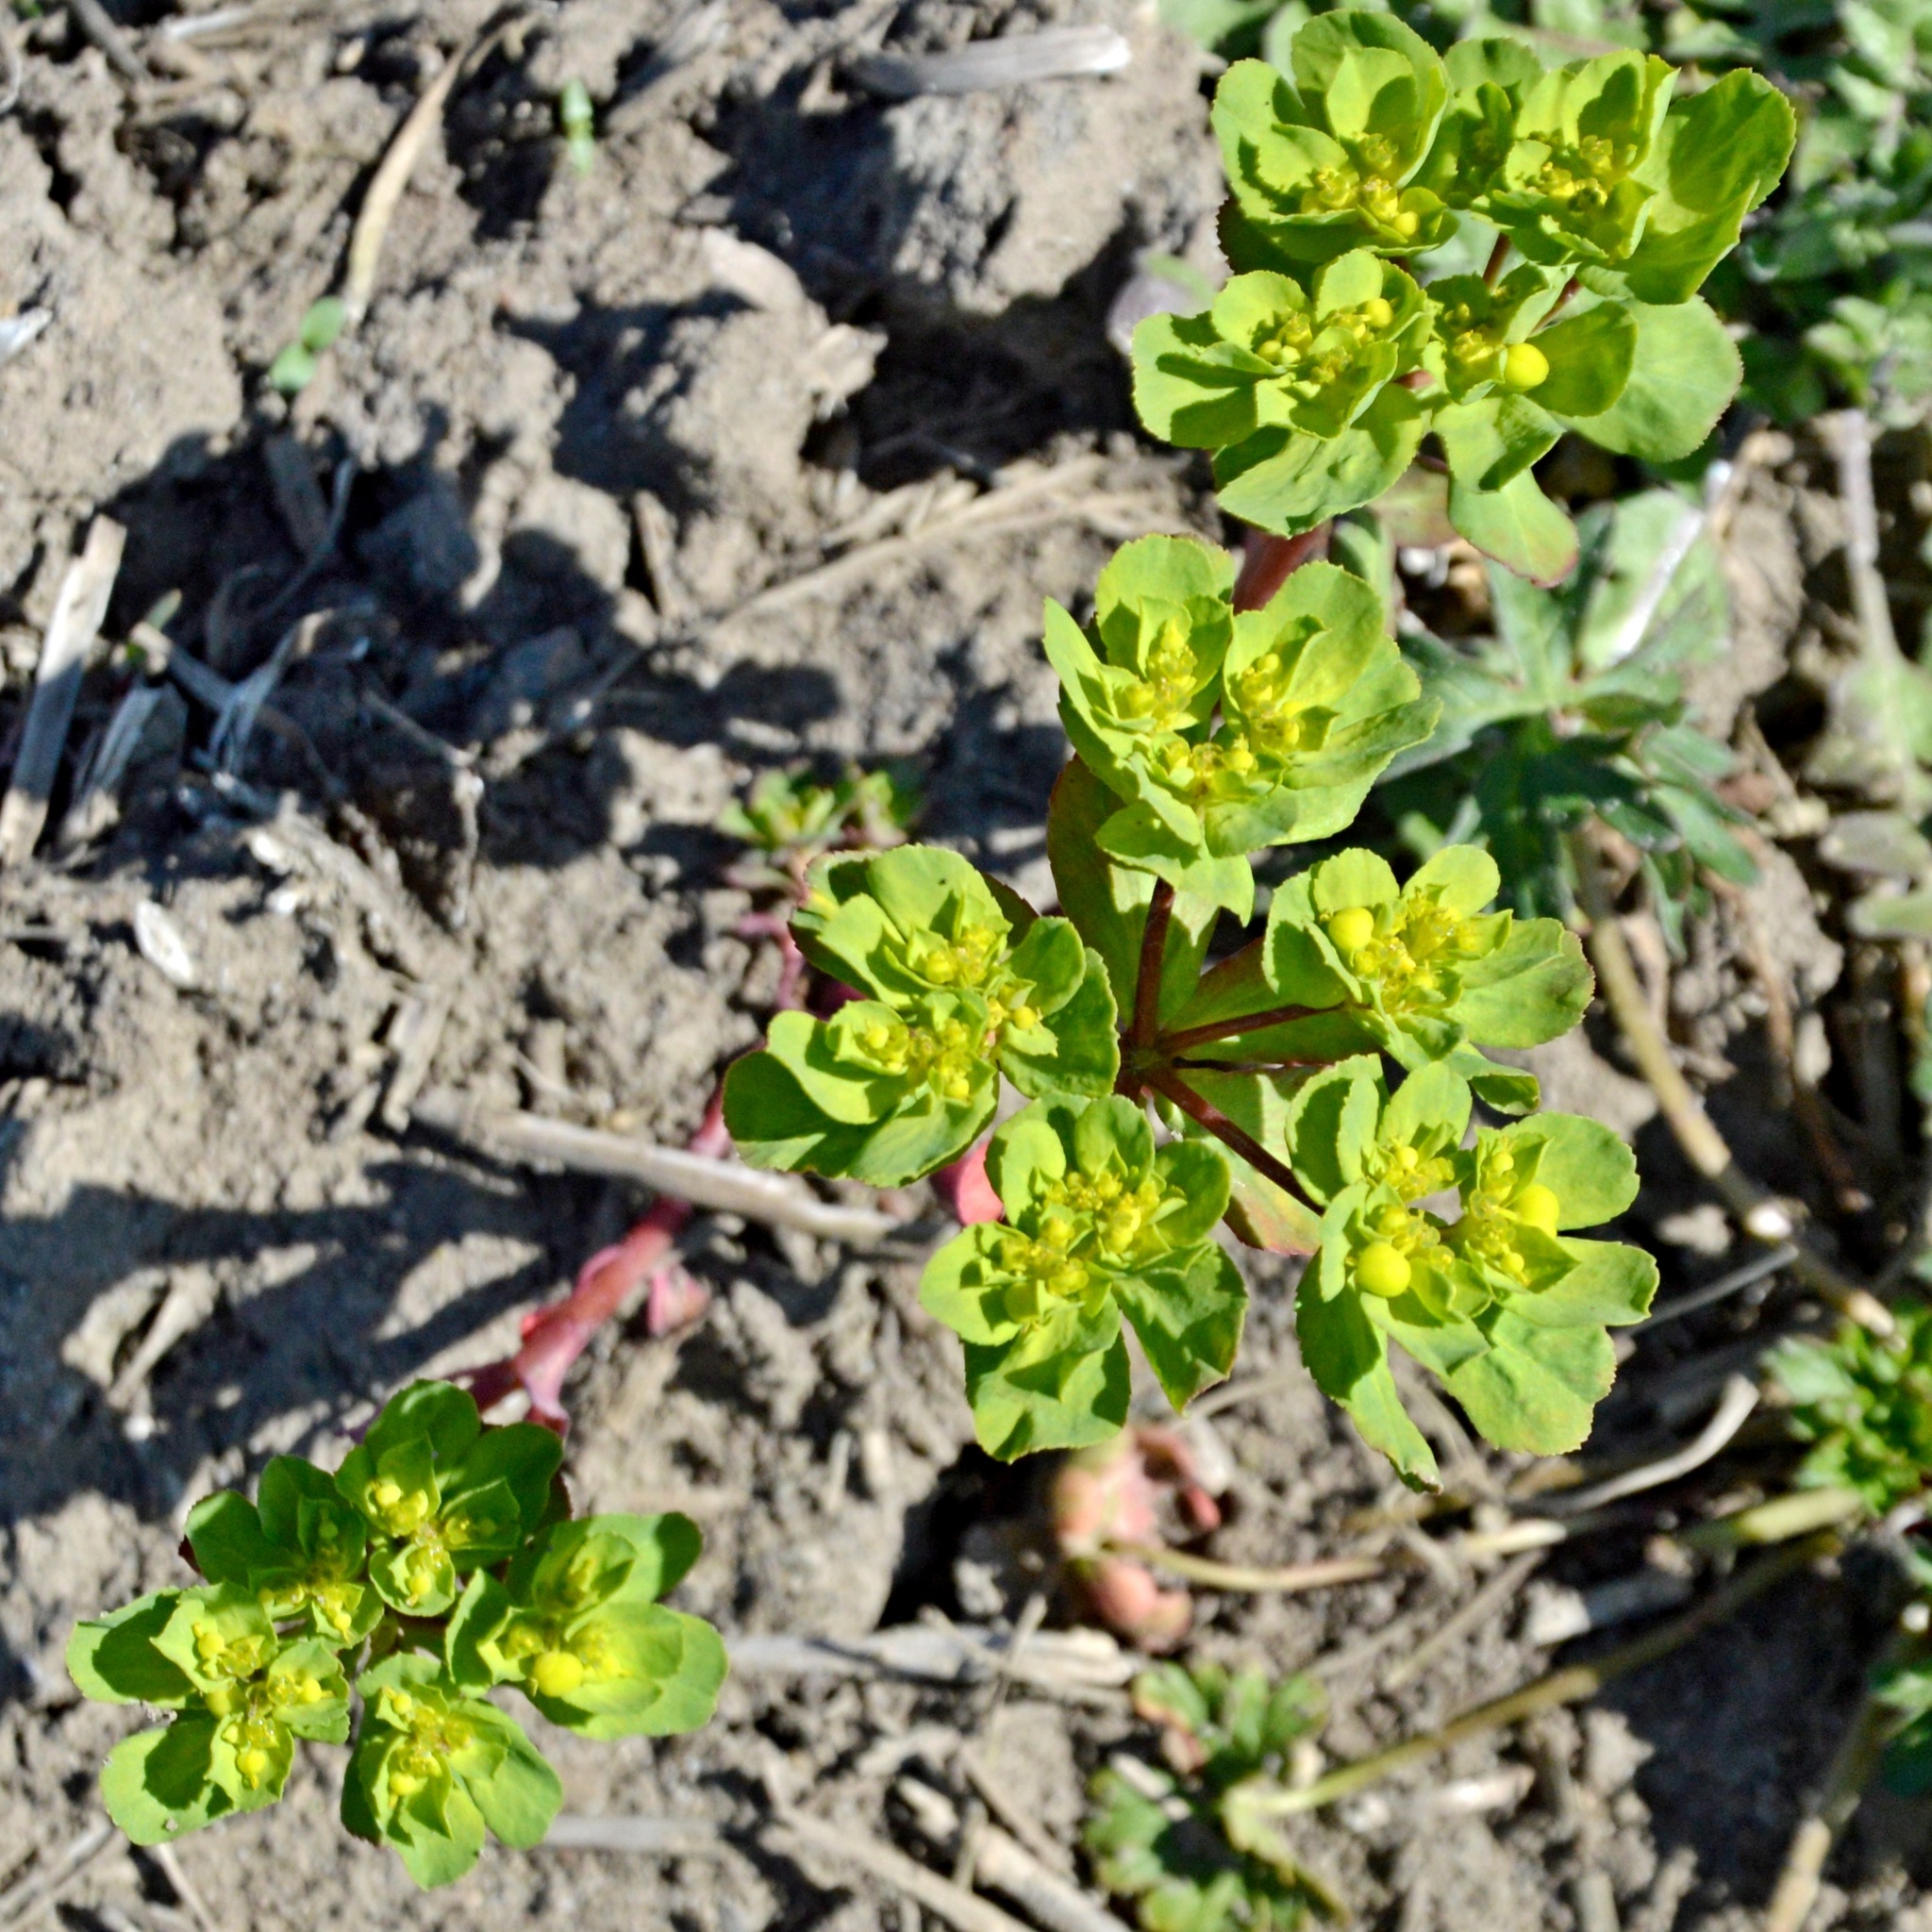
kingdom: Plantae
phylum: Tracheophyta
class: Magnoliopsida
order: Malpighiales
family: Euphorbiaceae
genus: Euphorbia
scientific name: Euphorbia helioscopia
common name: Sun spurge
